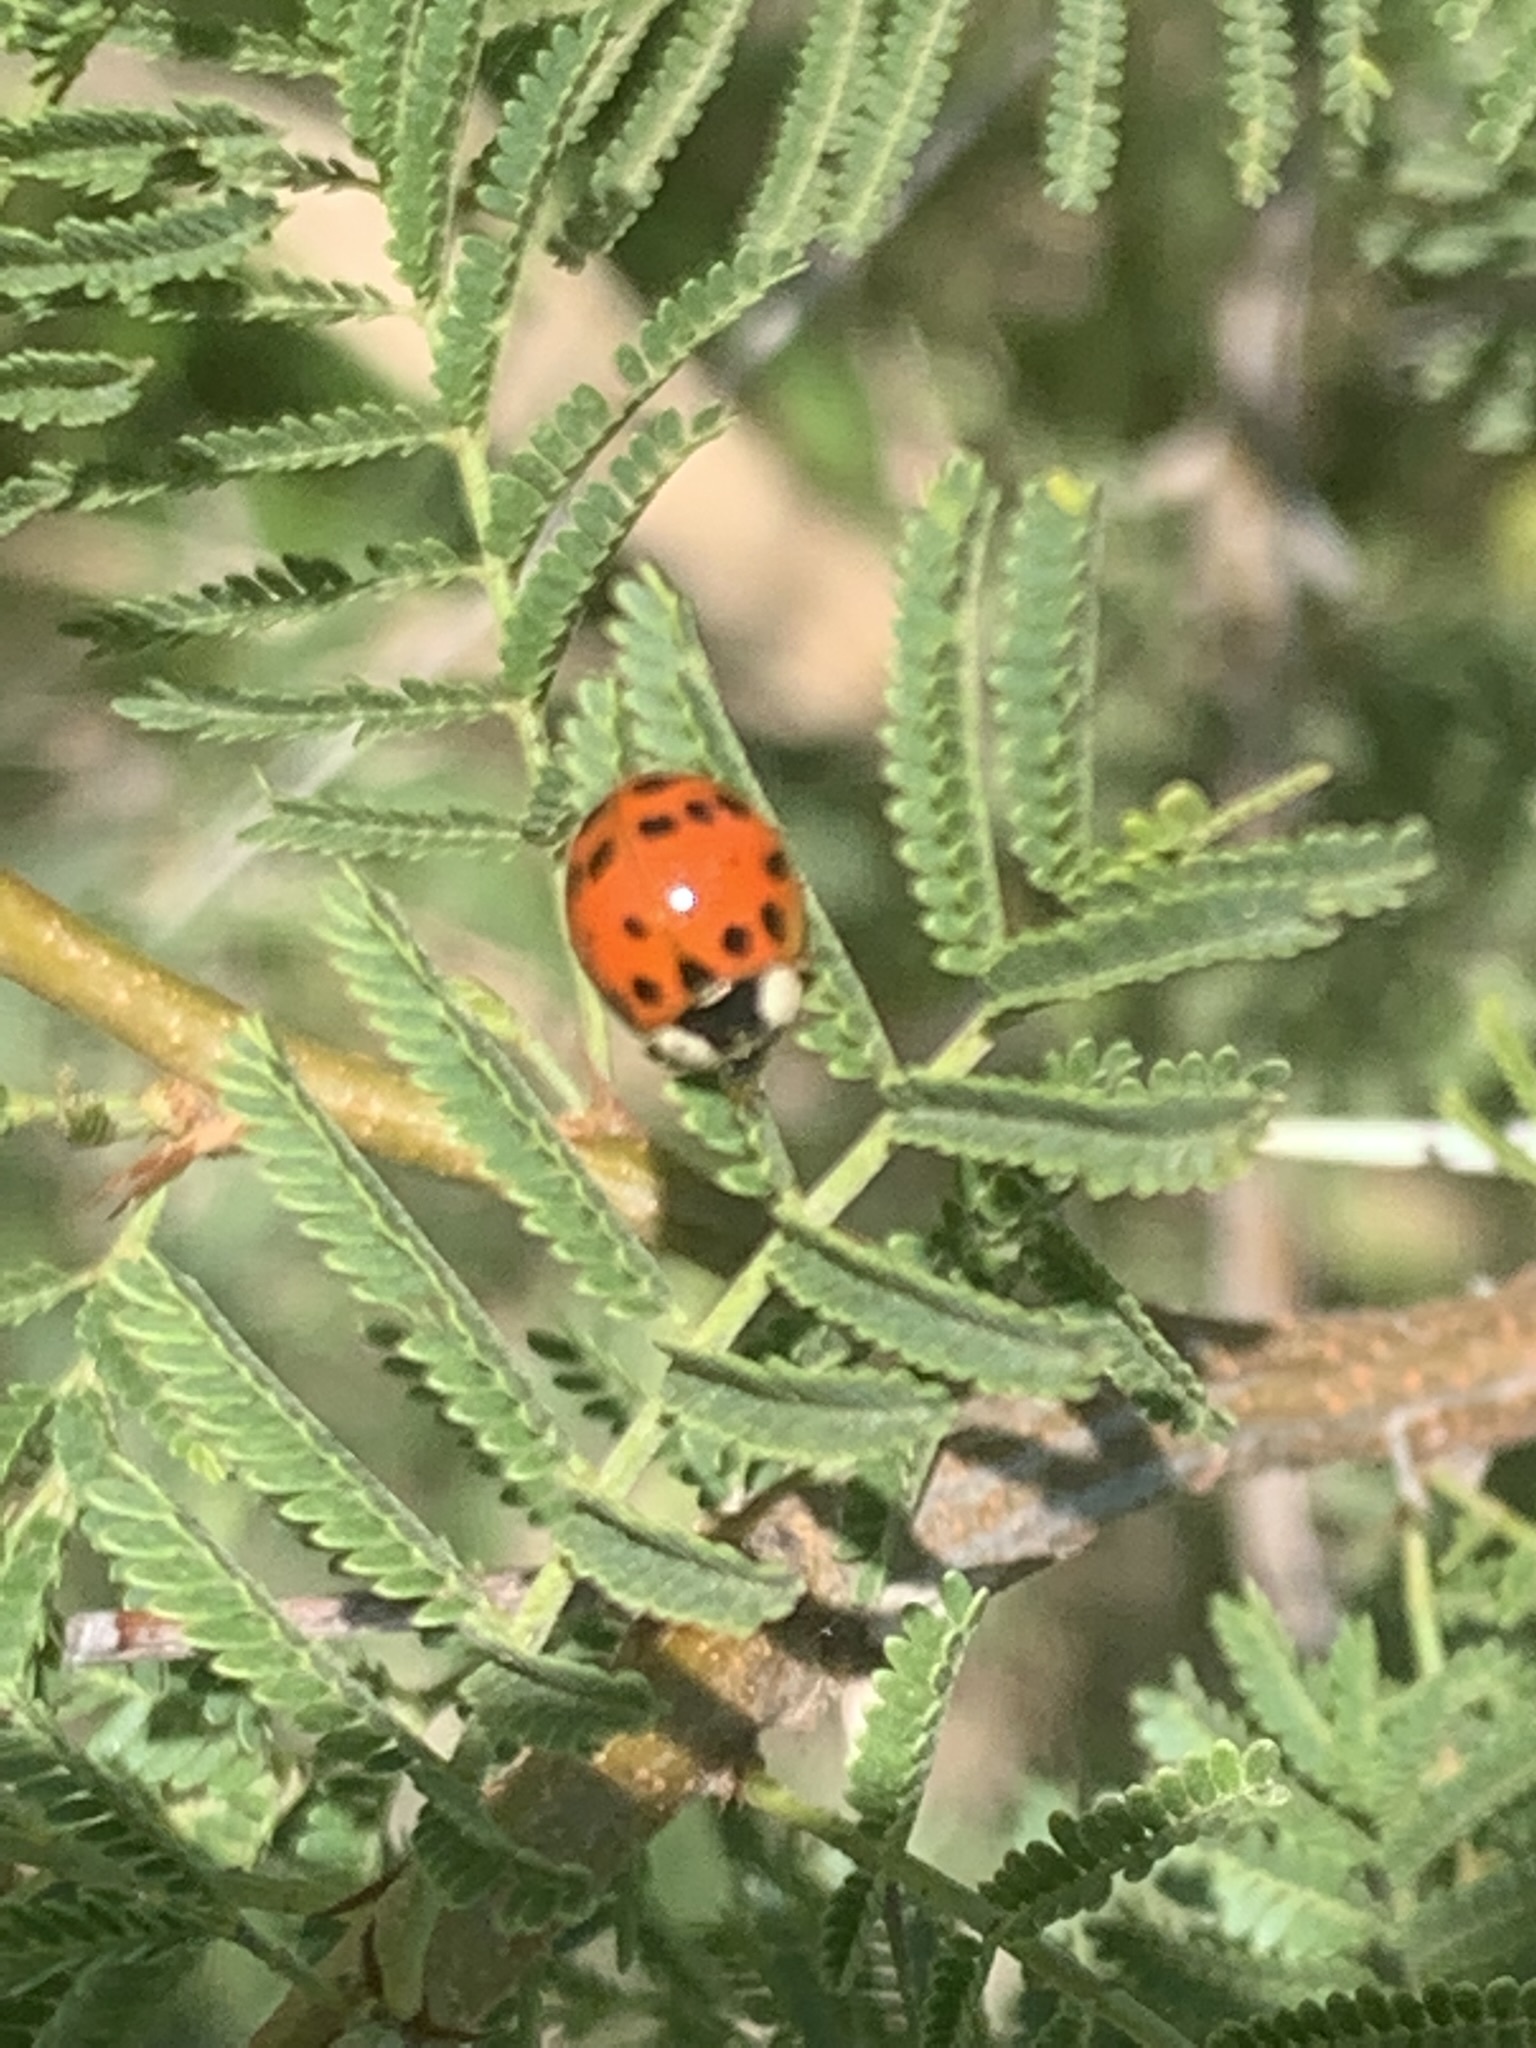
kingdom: Animalia
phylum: Arthropoda
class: Insecta
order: Coleoptera
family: Coccinellidae
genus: Harmonia
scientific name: Harmonia axyridis
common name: Harlequin ladybird
